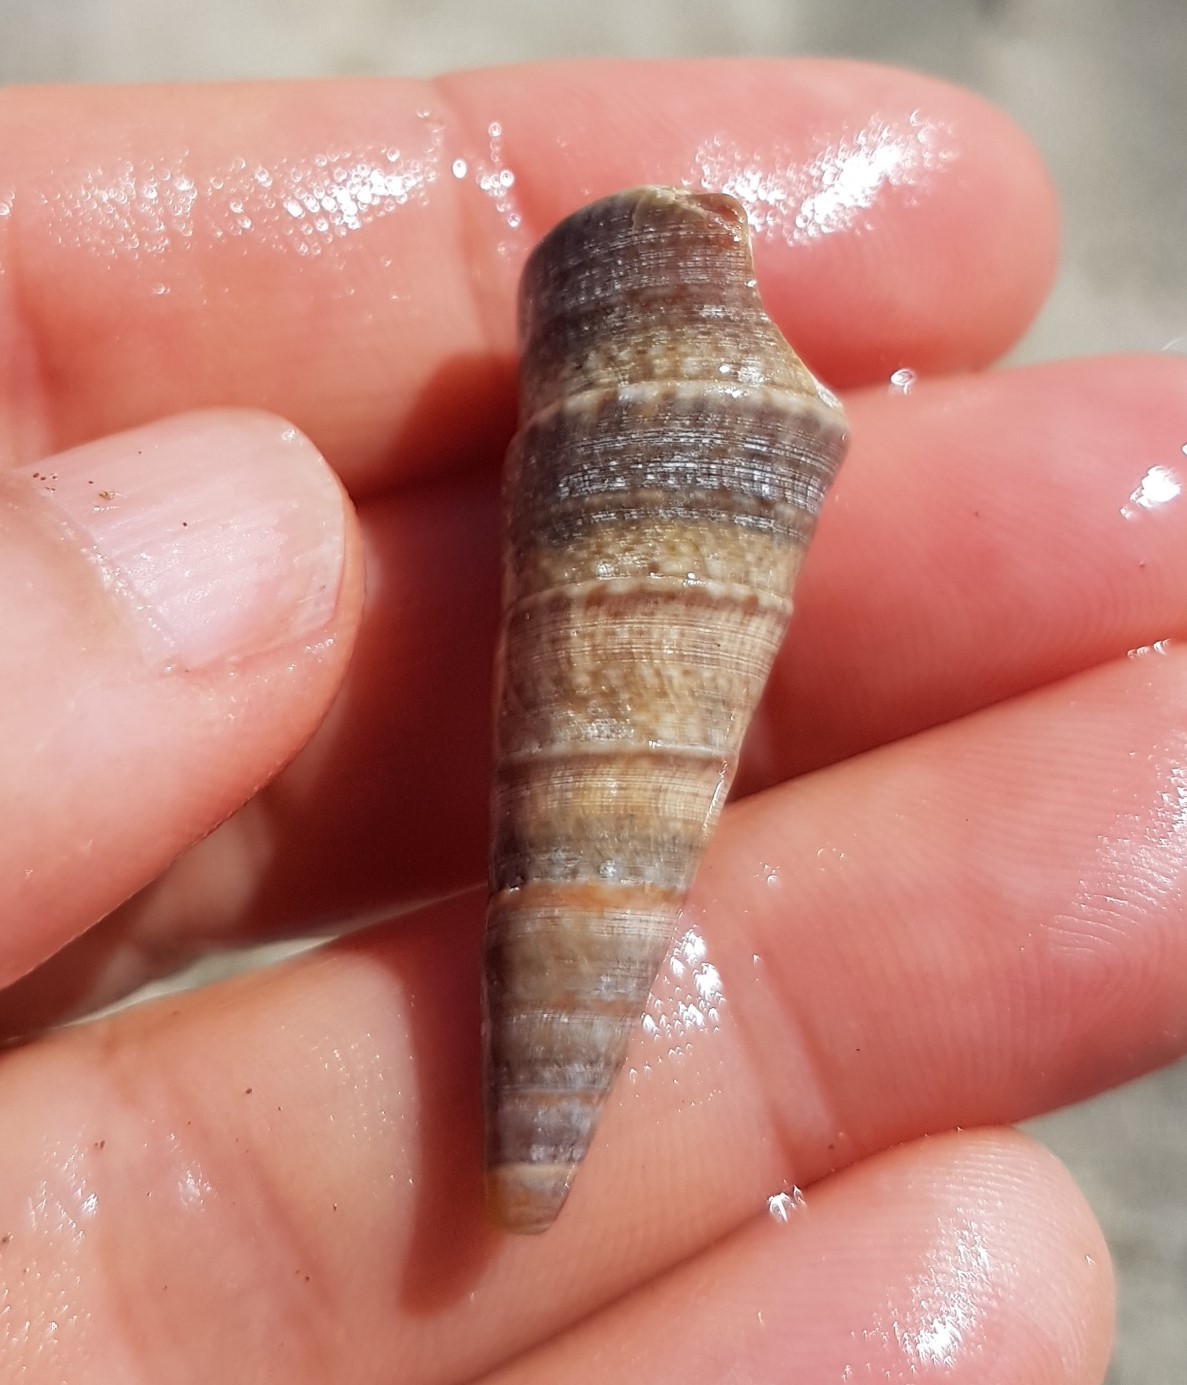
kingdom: Animalia
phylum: Mollusca
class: Gastropoda
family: Turritellidae
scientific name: Turritellidae
